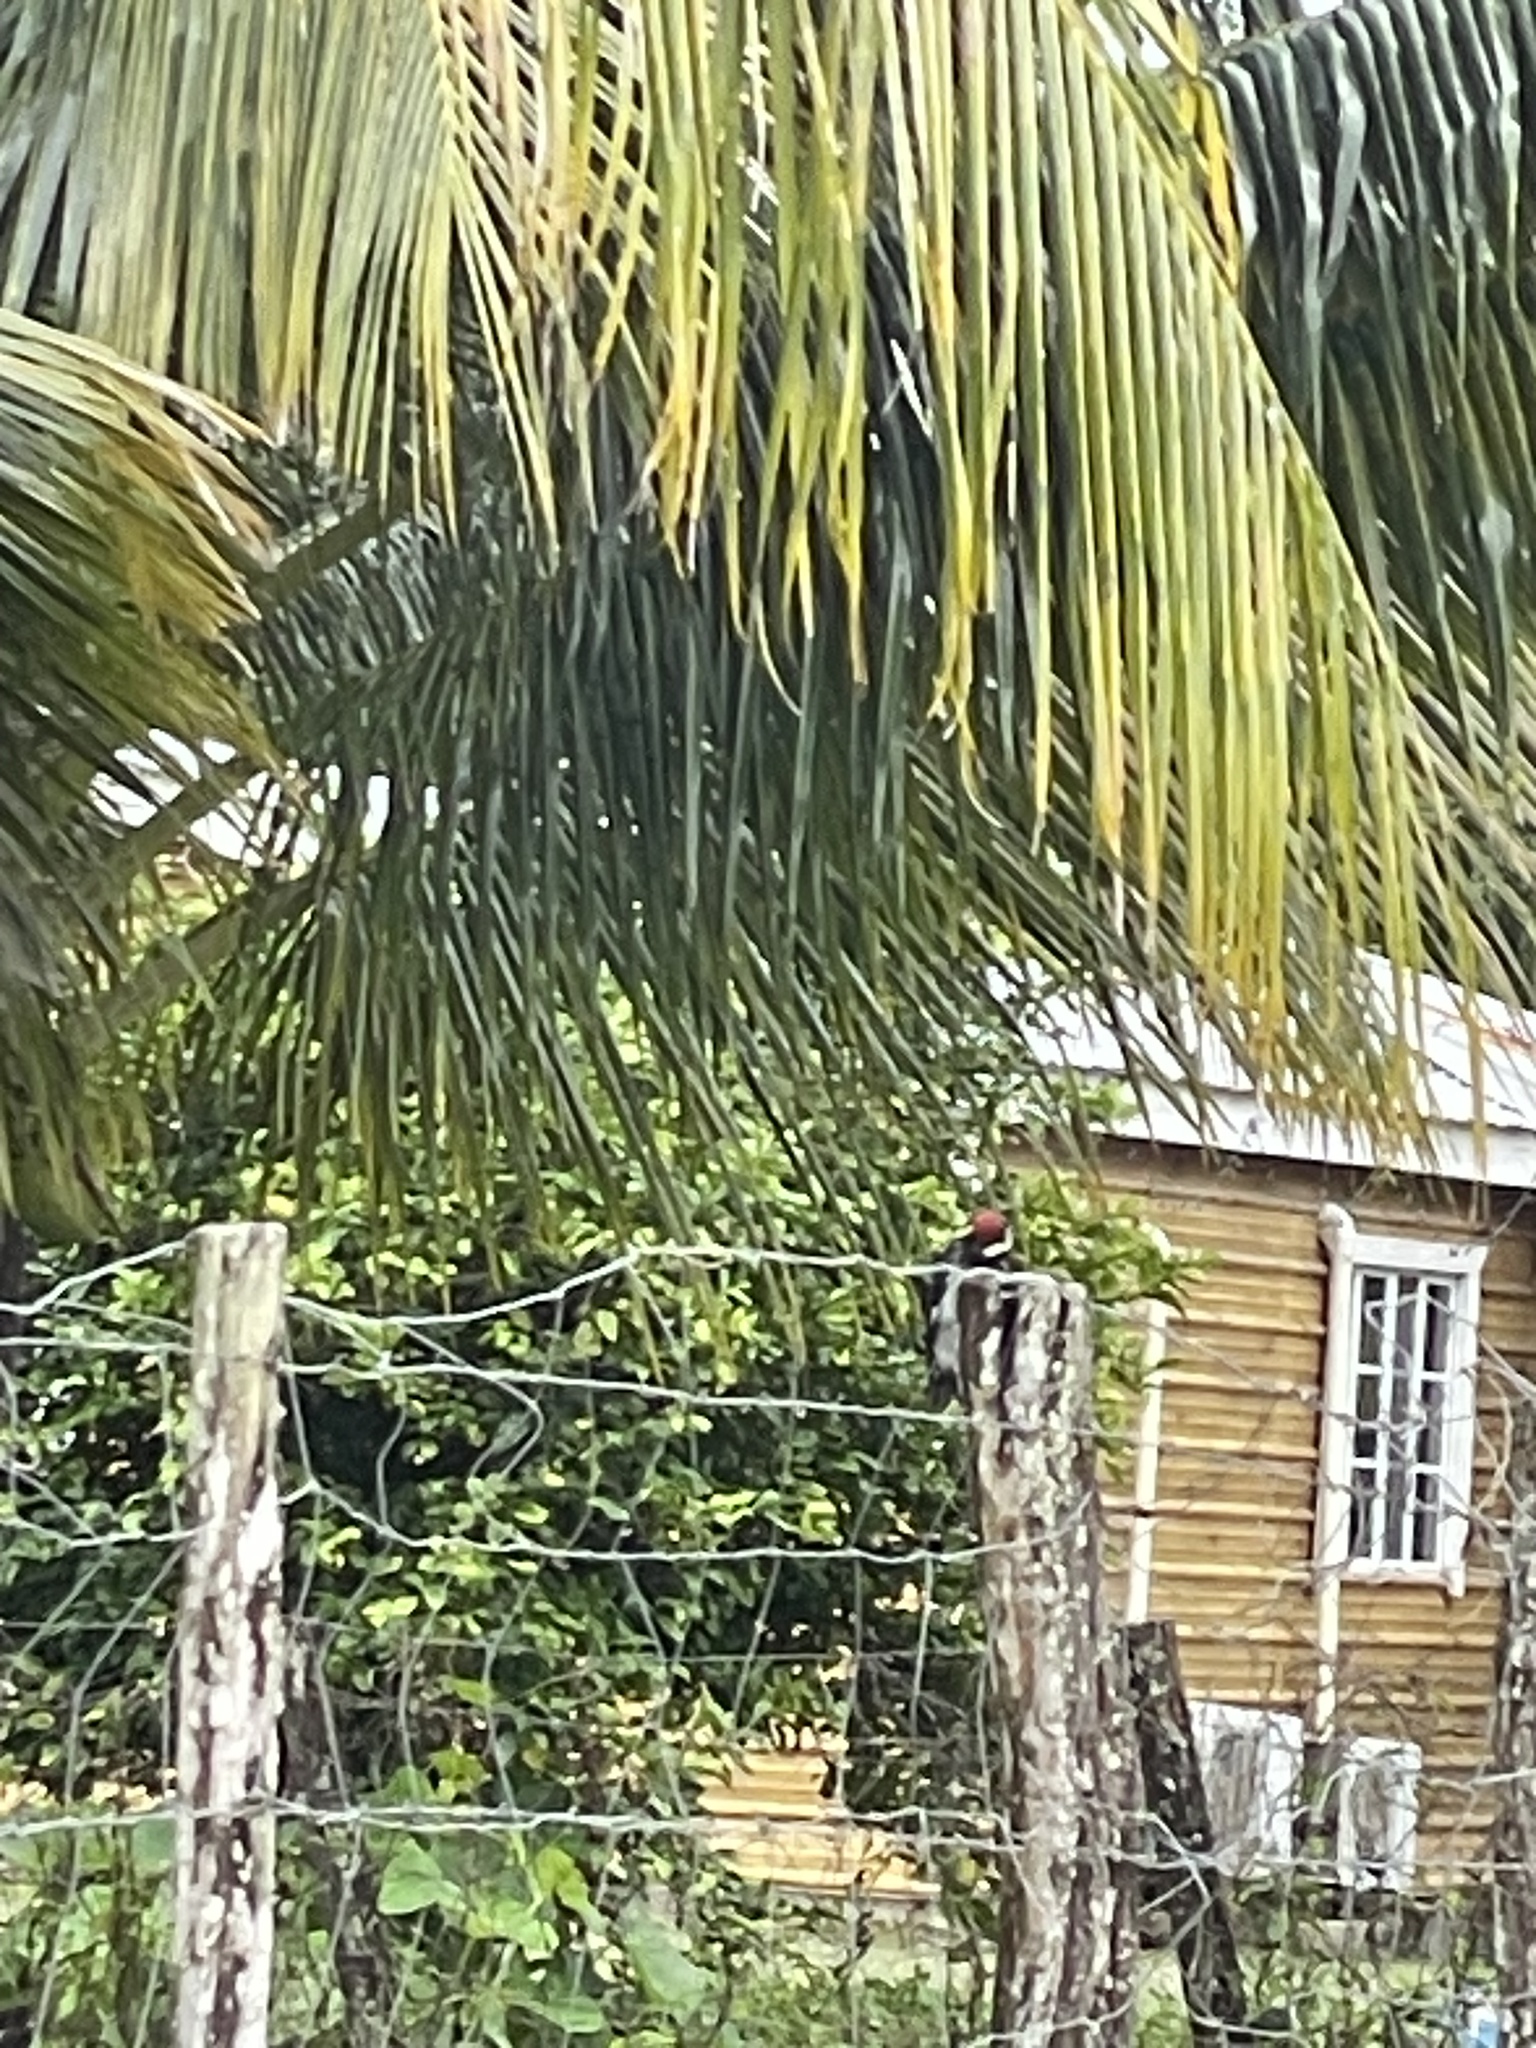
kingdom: Animalia
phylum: Chordata
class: Aves
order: Piciformes
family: Picidae
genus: Melanerpes
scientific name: Melanerpes formicivorus
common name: Acorn woodpecker
